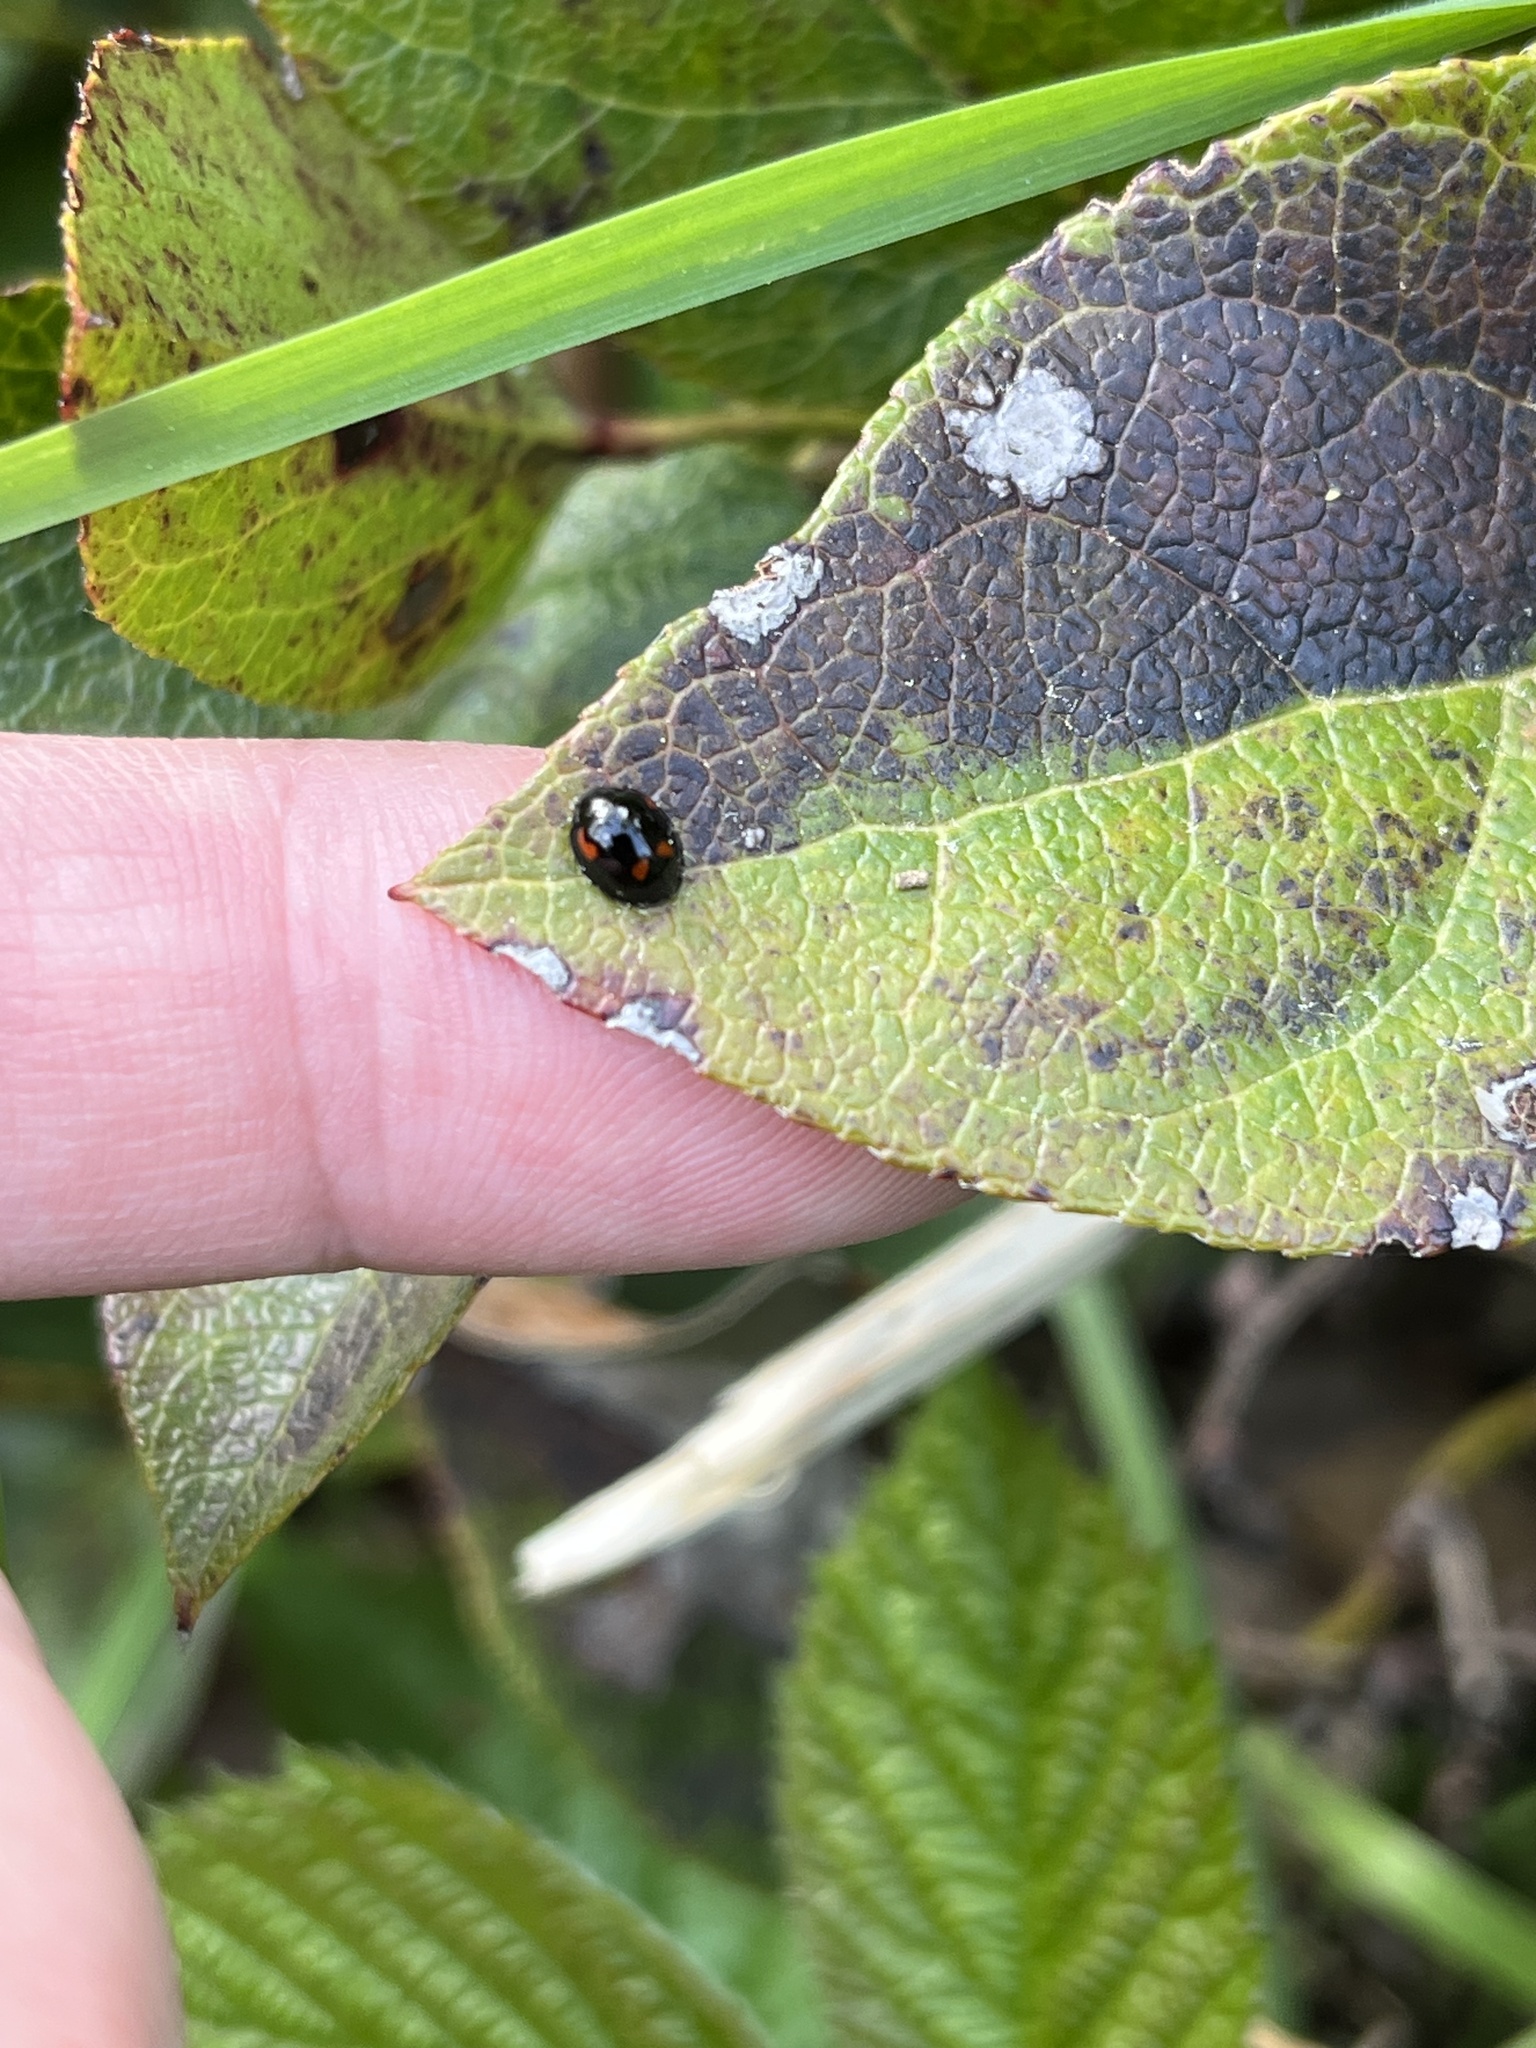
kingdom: Animalia
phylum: Arthropoda
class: Insecta
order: Coleoptera
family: Coccinellidae
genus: Brumus
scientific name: Brumus quadripustulatus
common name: Ladybird beetle
